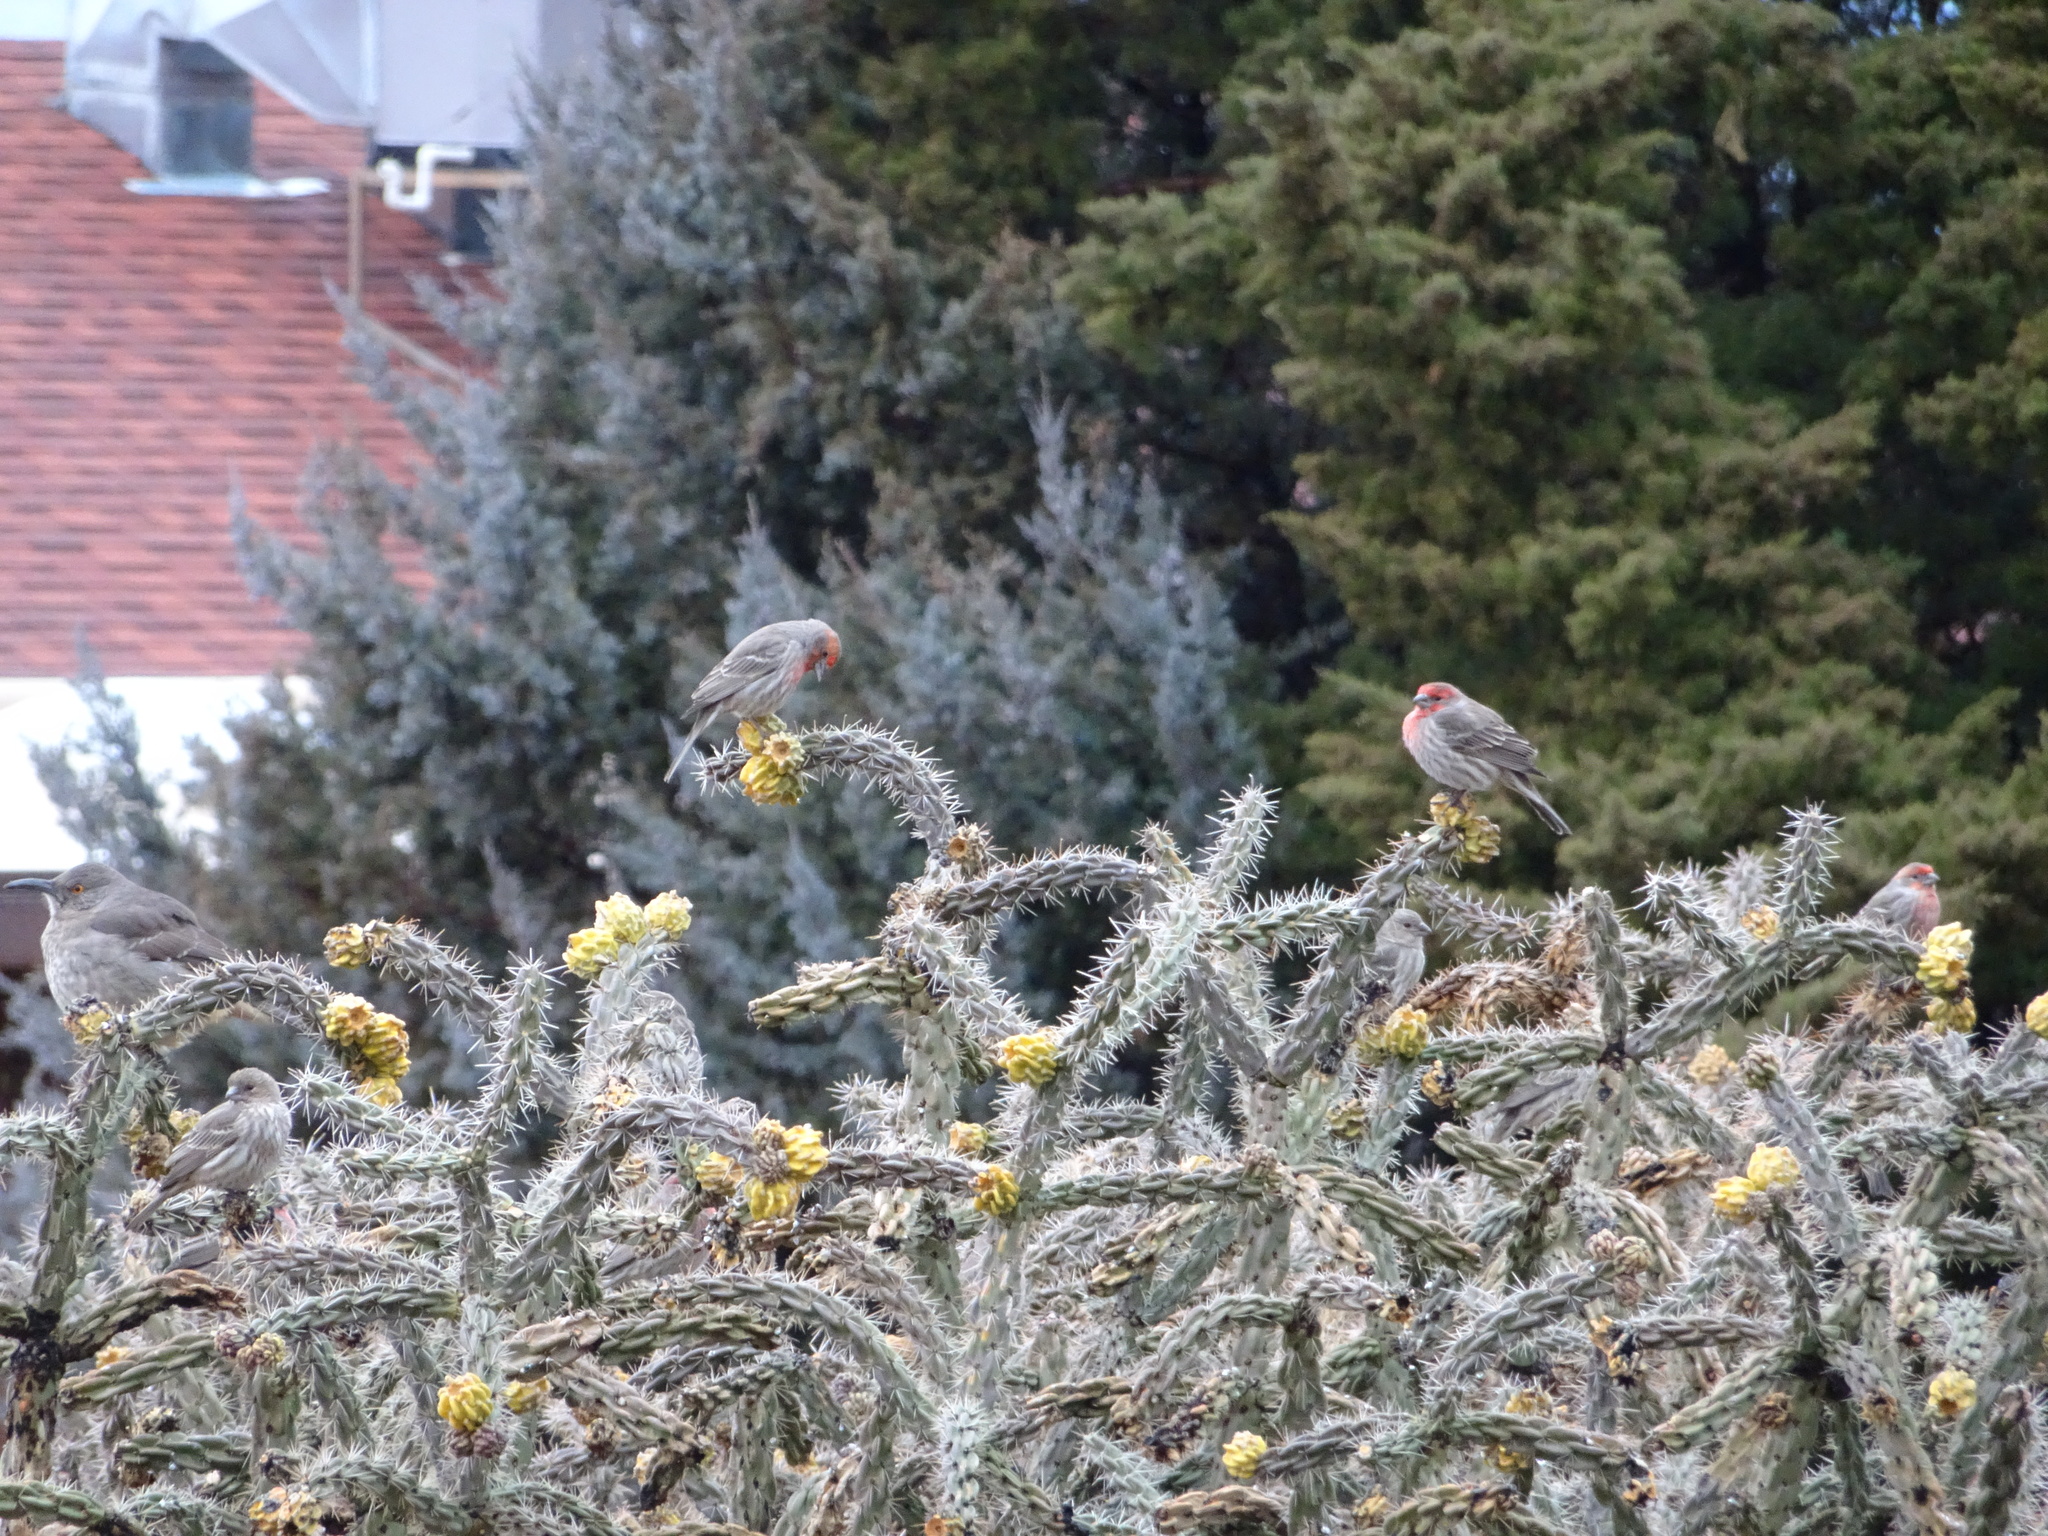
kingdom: Animalia
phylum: Chordata
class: Aves
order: Passeriformes
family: Fringillidae
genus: Haemorhous
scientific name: Haemorhous mexicanus
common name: House finch
